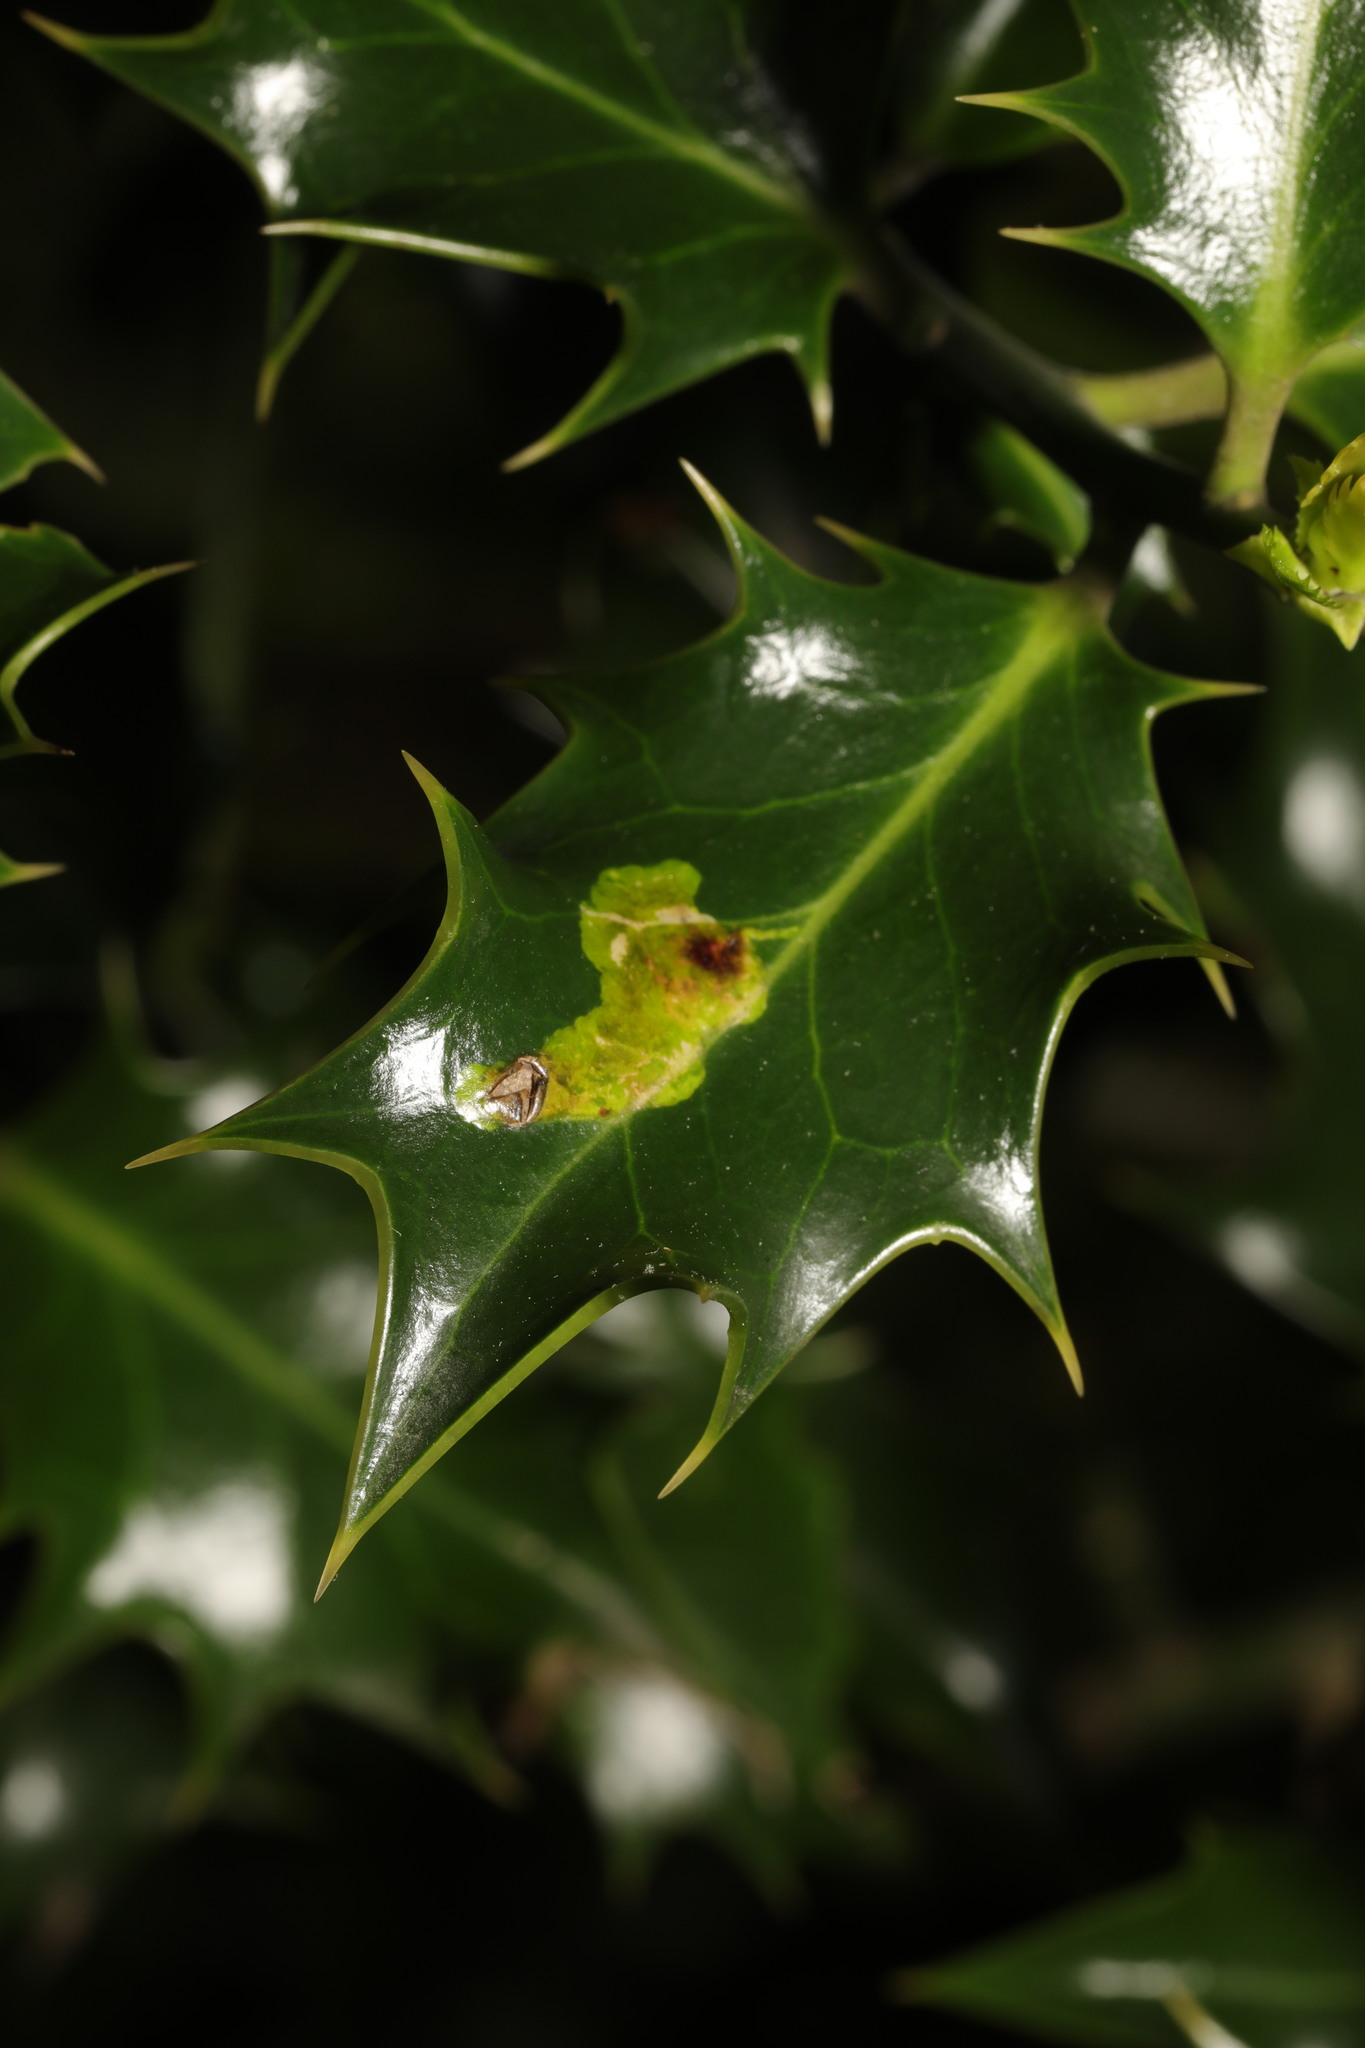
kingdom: Animalia
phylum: Arthropoda
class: Insecta
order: Diptera
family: Agromyzidae
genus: Phytomyza
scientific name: Phytomyza ilicis
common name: Holly leafminer
